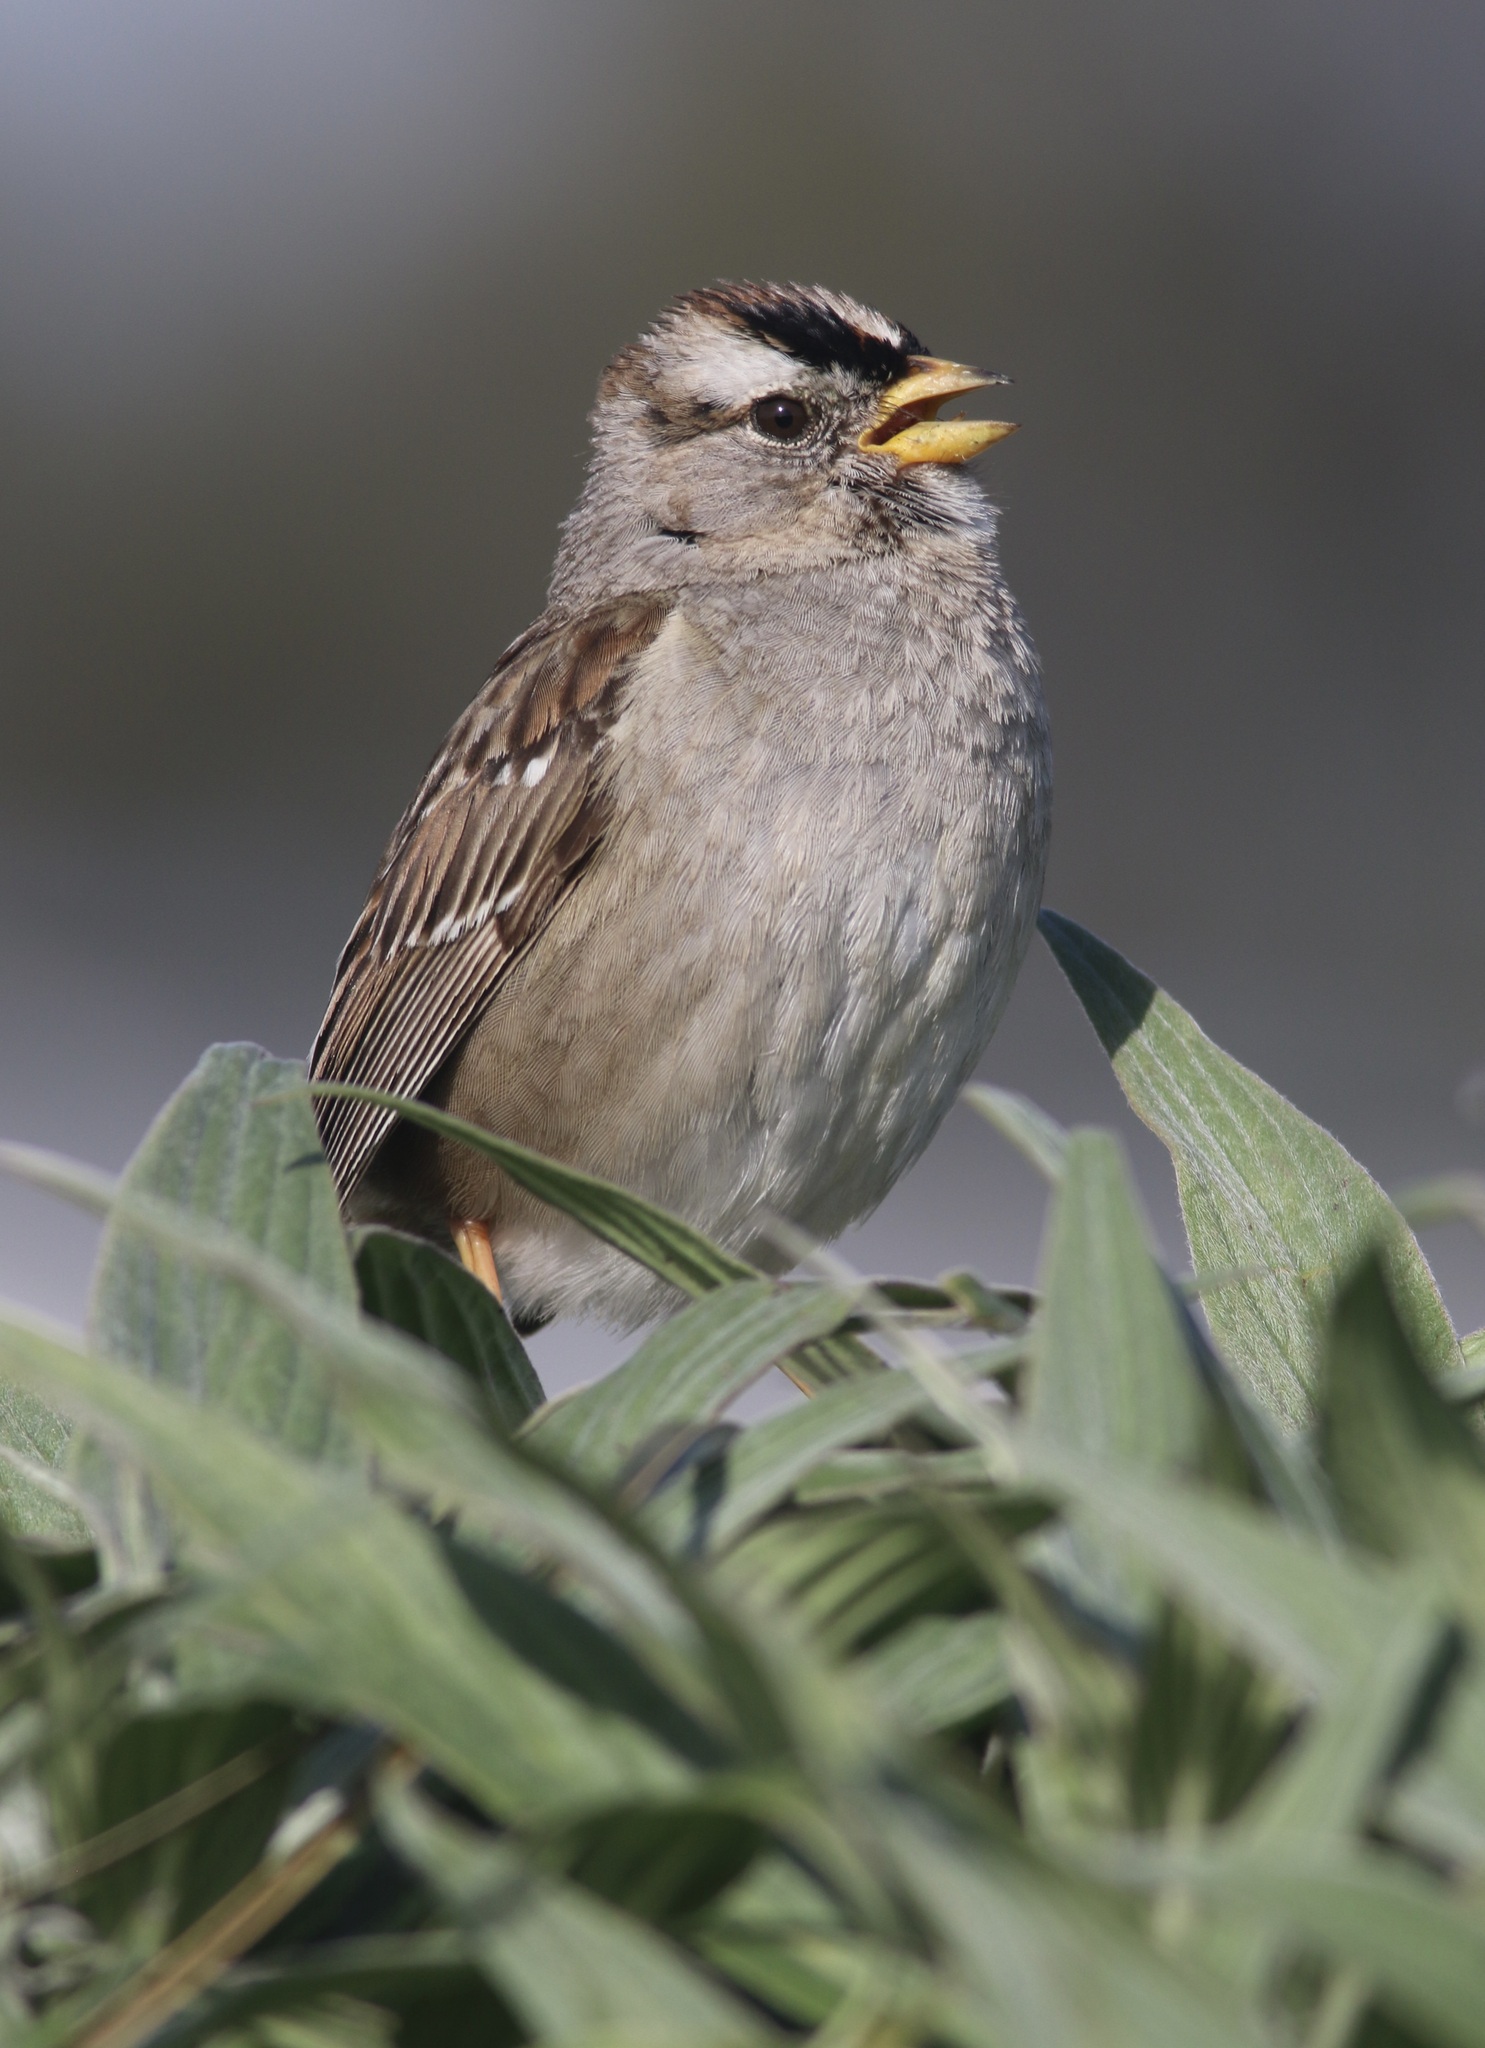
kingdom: Animalia
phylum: Chordata
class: Aves
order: Passeriformes
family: Passerellidae
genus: Zonotrichia
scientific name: Zonotrichia leucophrys
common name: White-crowned sparrow
